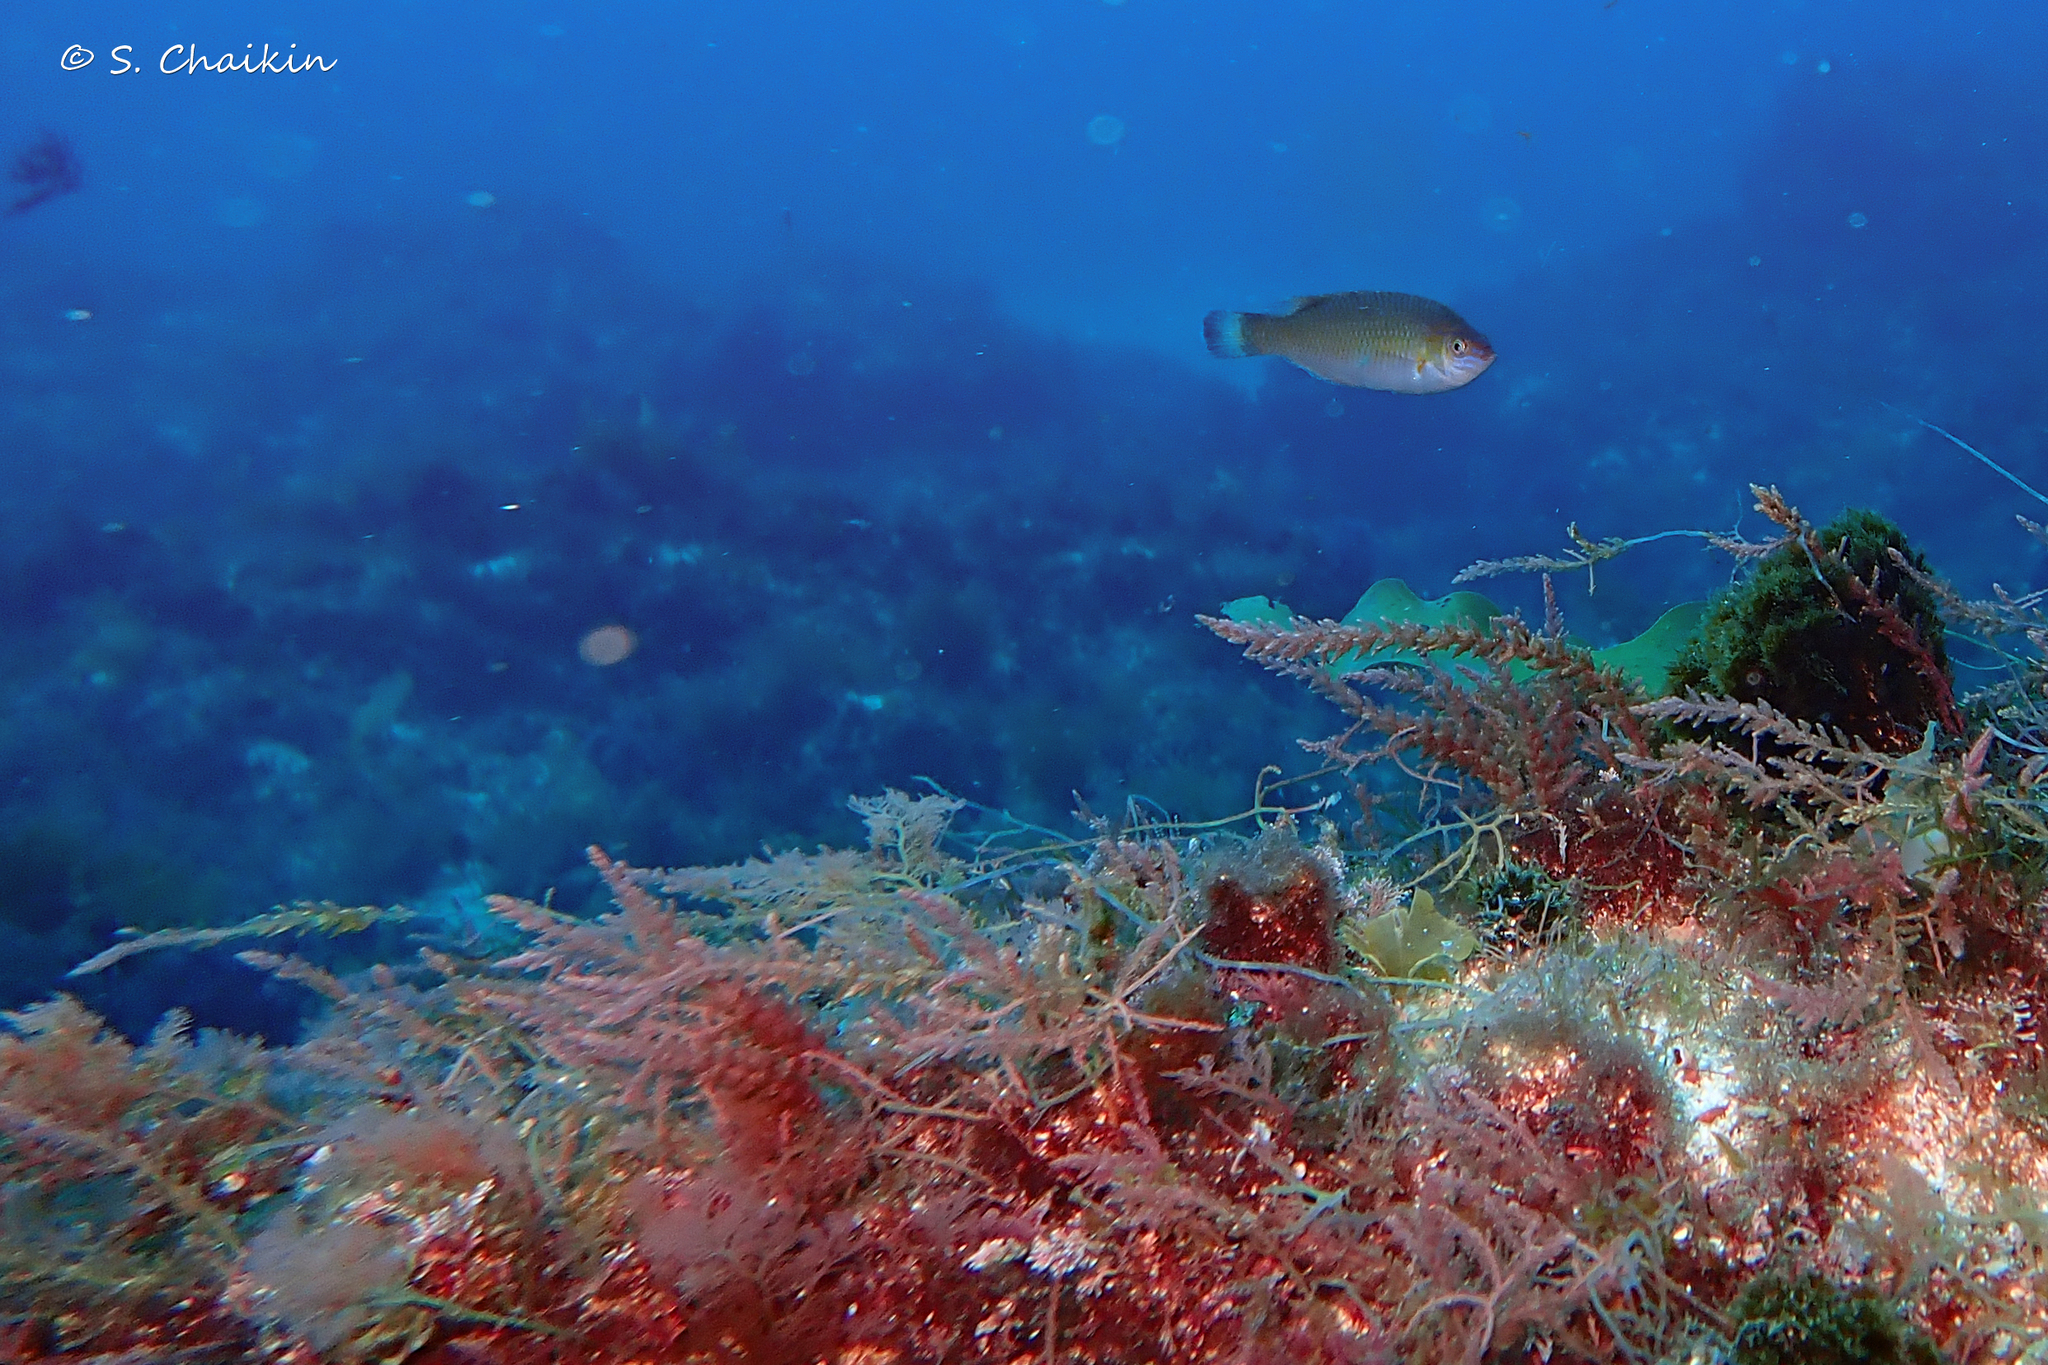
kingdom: Animalia
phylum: Chordata
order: Perciformes
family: Labridae
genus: Centrolabrus
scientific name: Centrolabrus exoletus
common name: Rock cook
